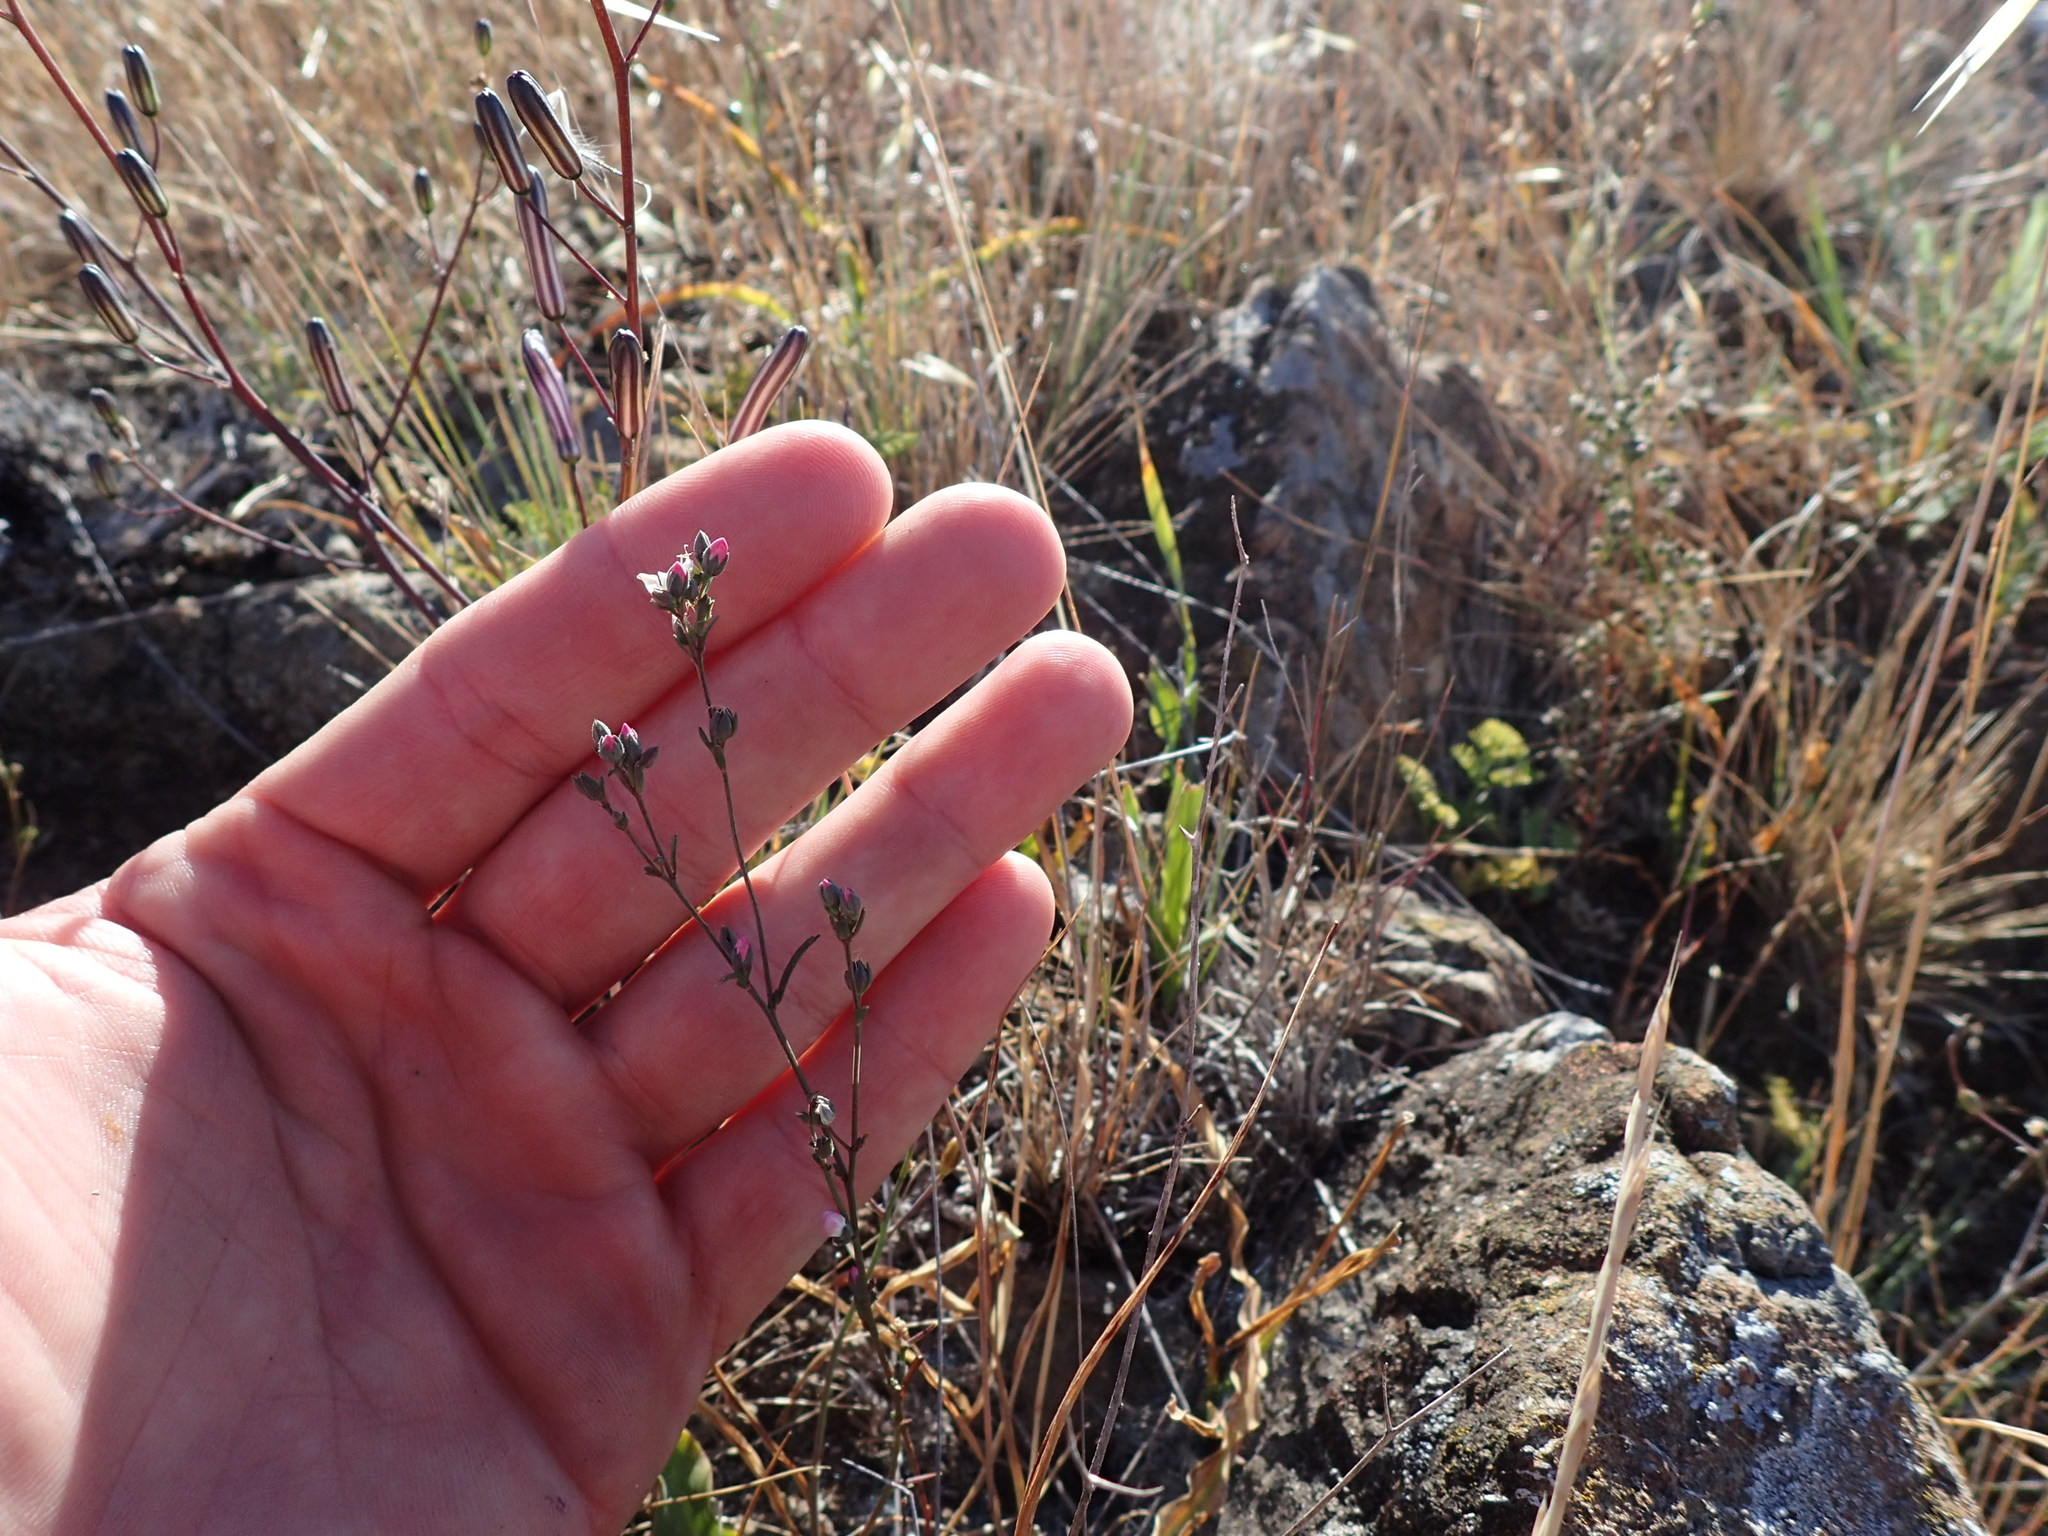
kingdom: Plantae
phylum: Tracheophyta
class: Magnoliopsida
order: Malpighiales
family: Linaceae
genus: Hesperolinon
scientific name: Hesperolinon congestum
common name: Marin dwarf-flax
